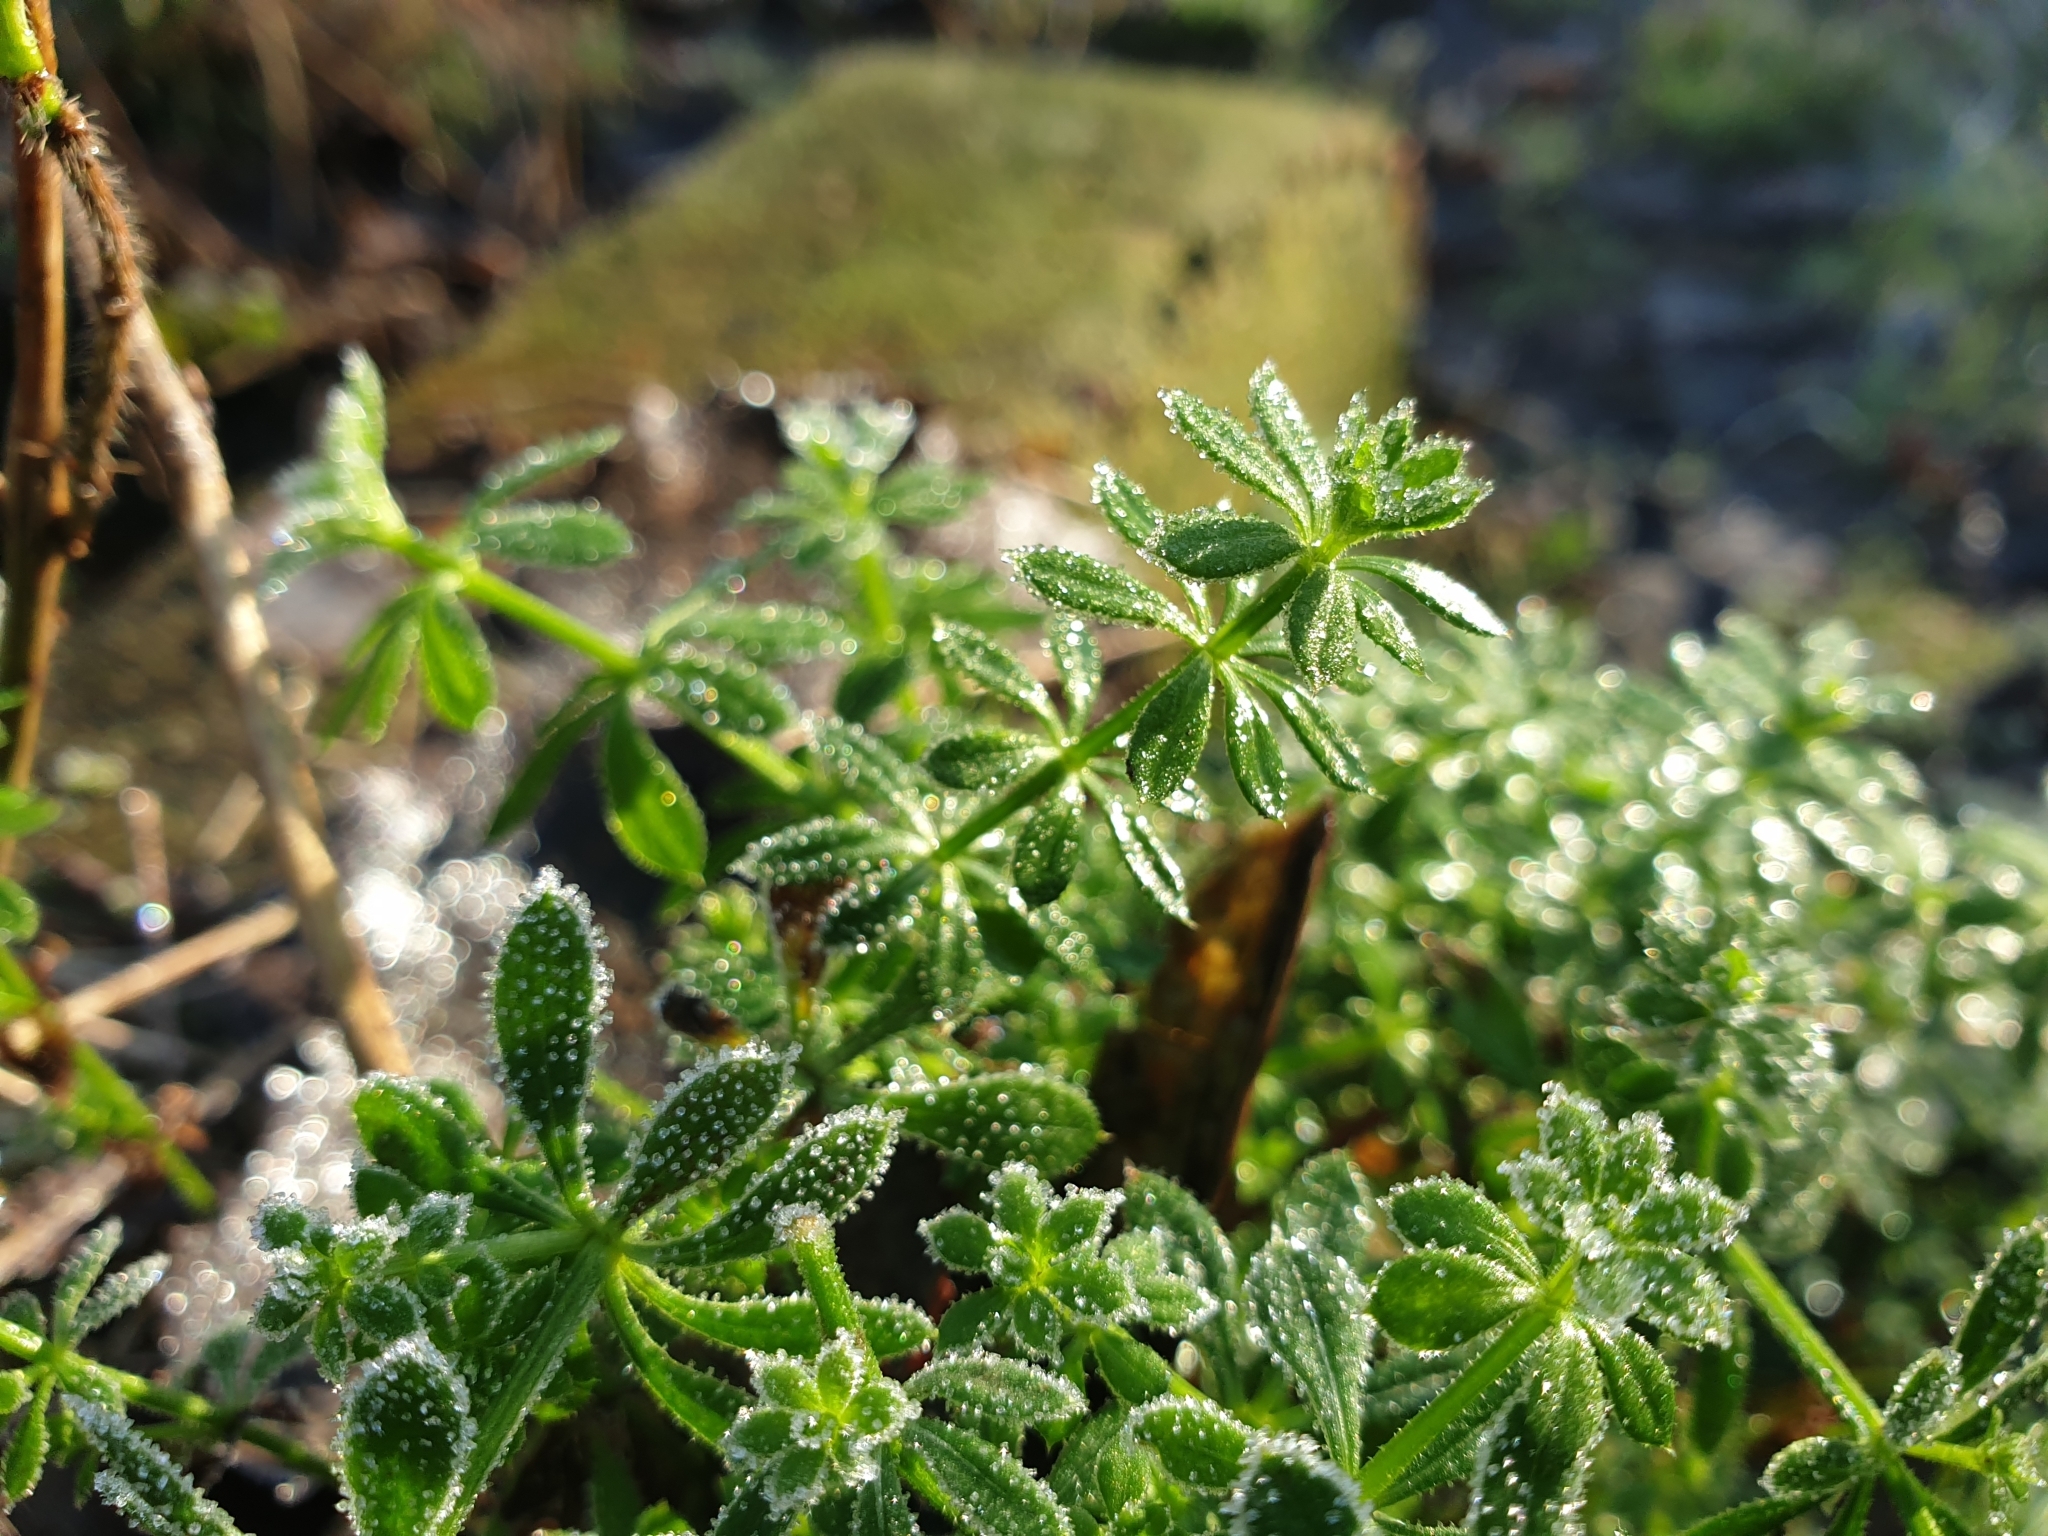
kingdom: Plantae
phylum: Tracheophyta
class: Magnoliopsida
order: Gentianales
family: Rubiaceae
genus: Galium
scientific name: Galium aparine
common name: Cleavers
